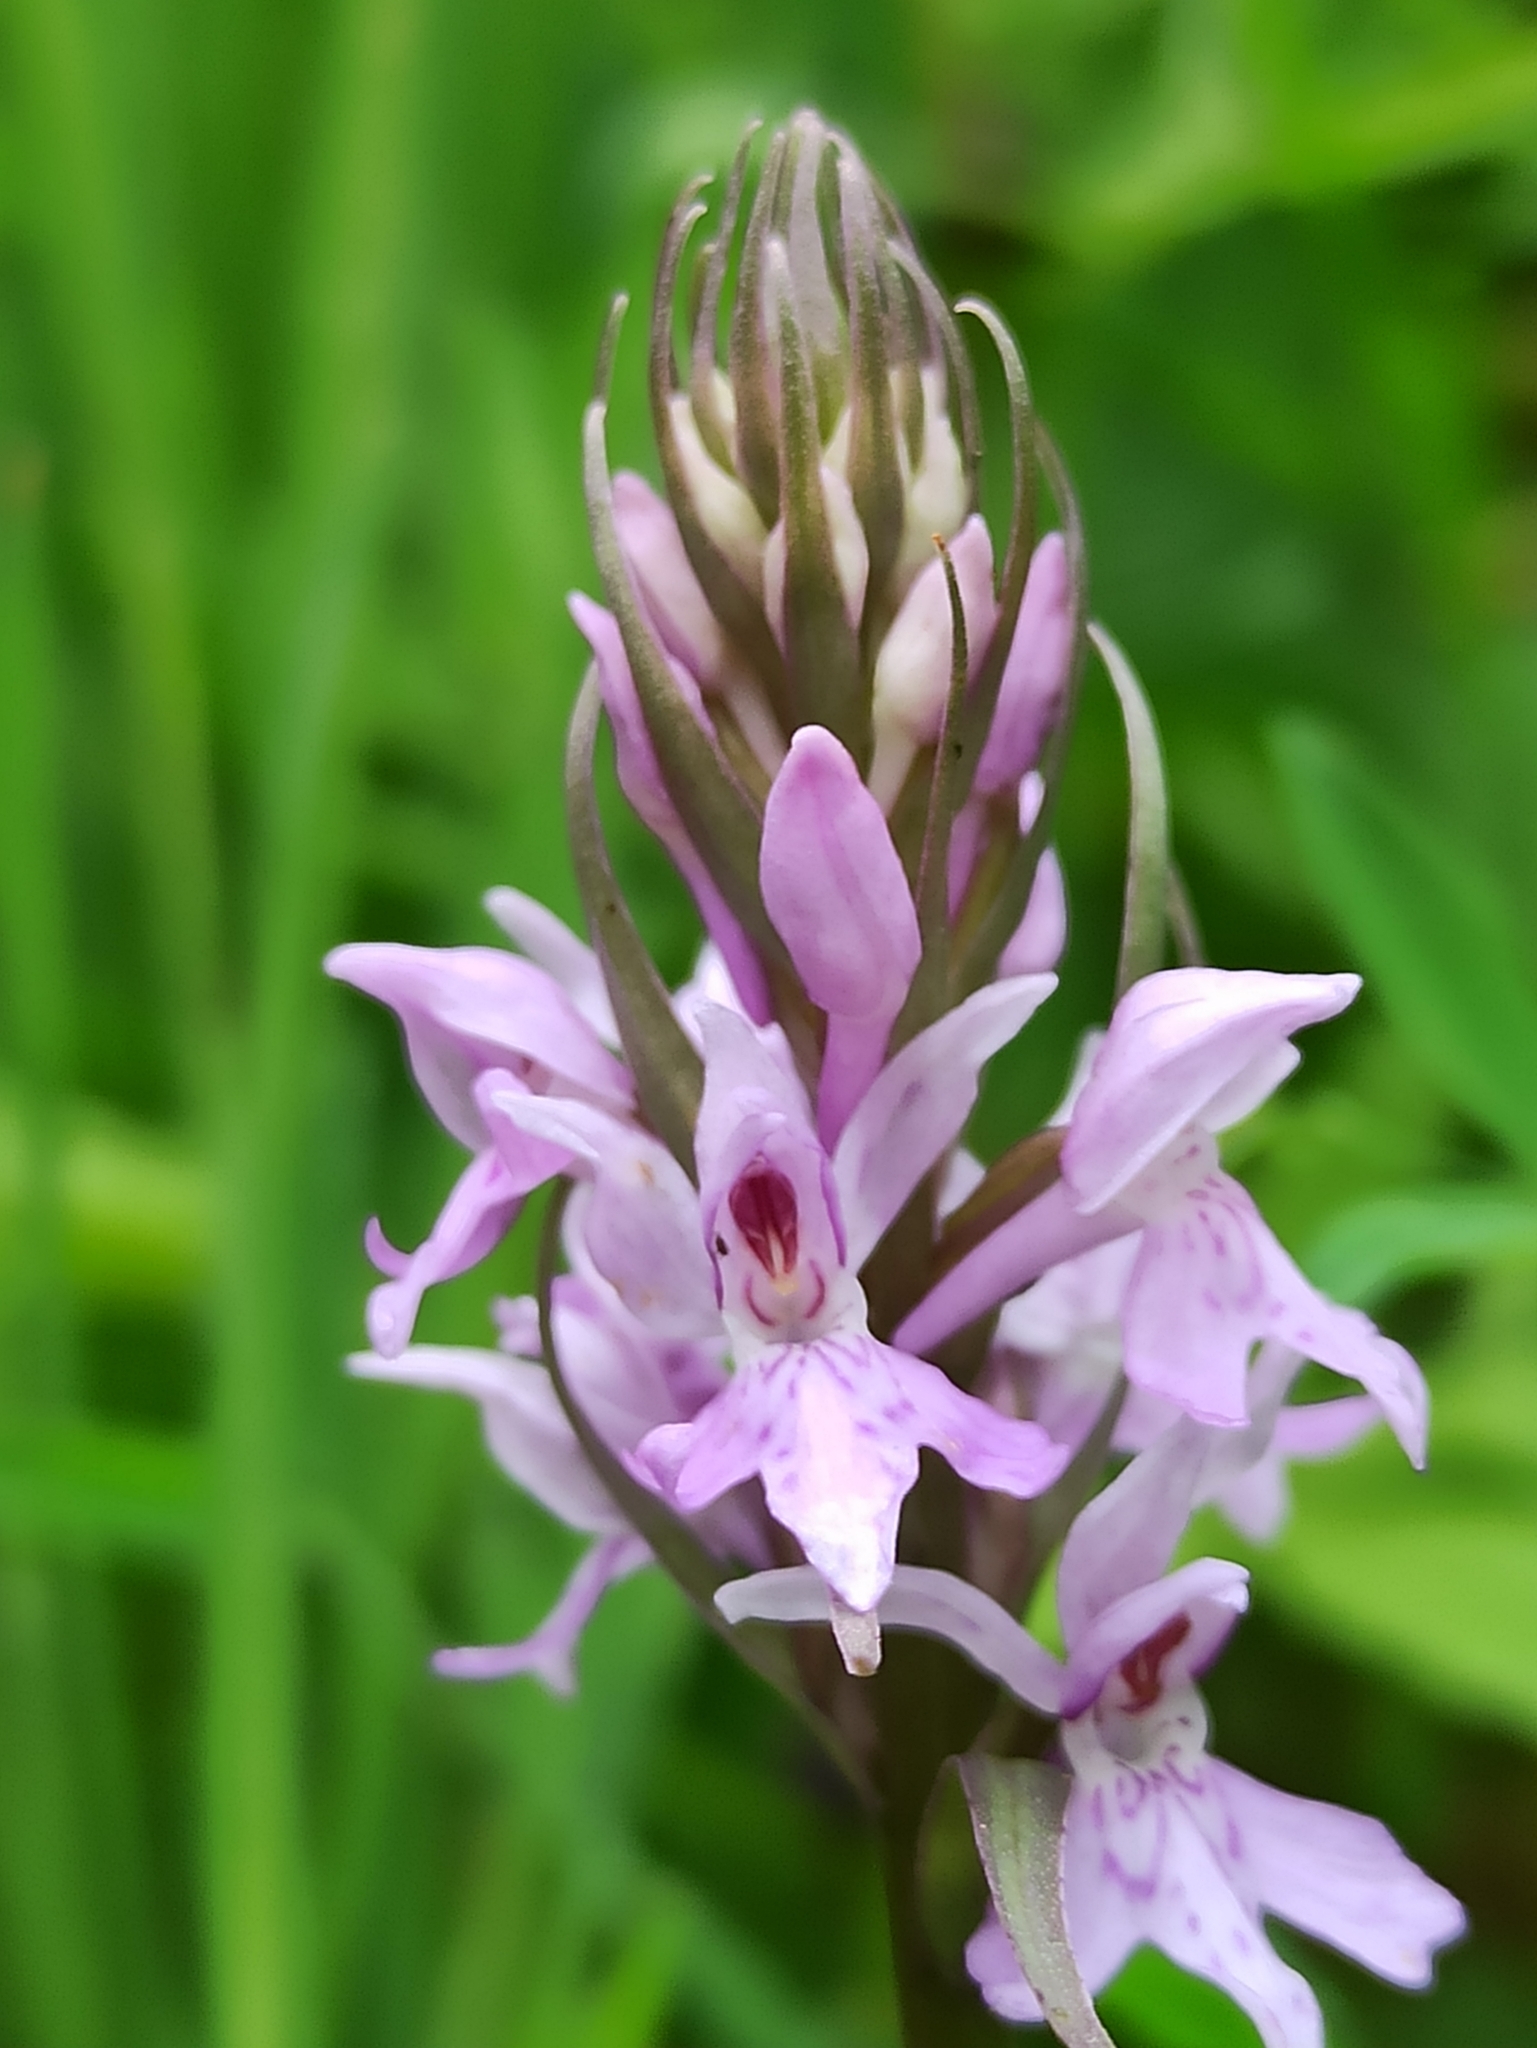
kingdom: Plantae
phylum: Tracheophyta
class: Liliopsida
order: Asparagales
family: Orchidaceae
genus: Dactylorhiza
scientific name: Dactylorhiza maculata
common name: Heath spotted-orchid
